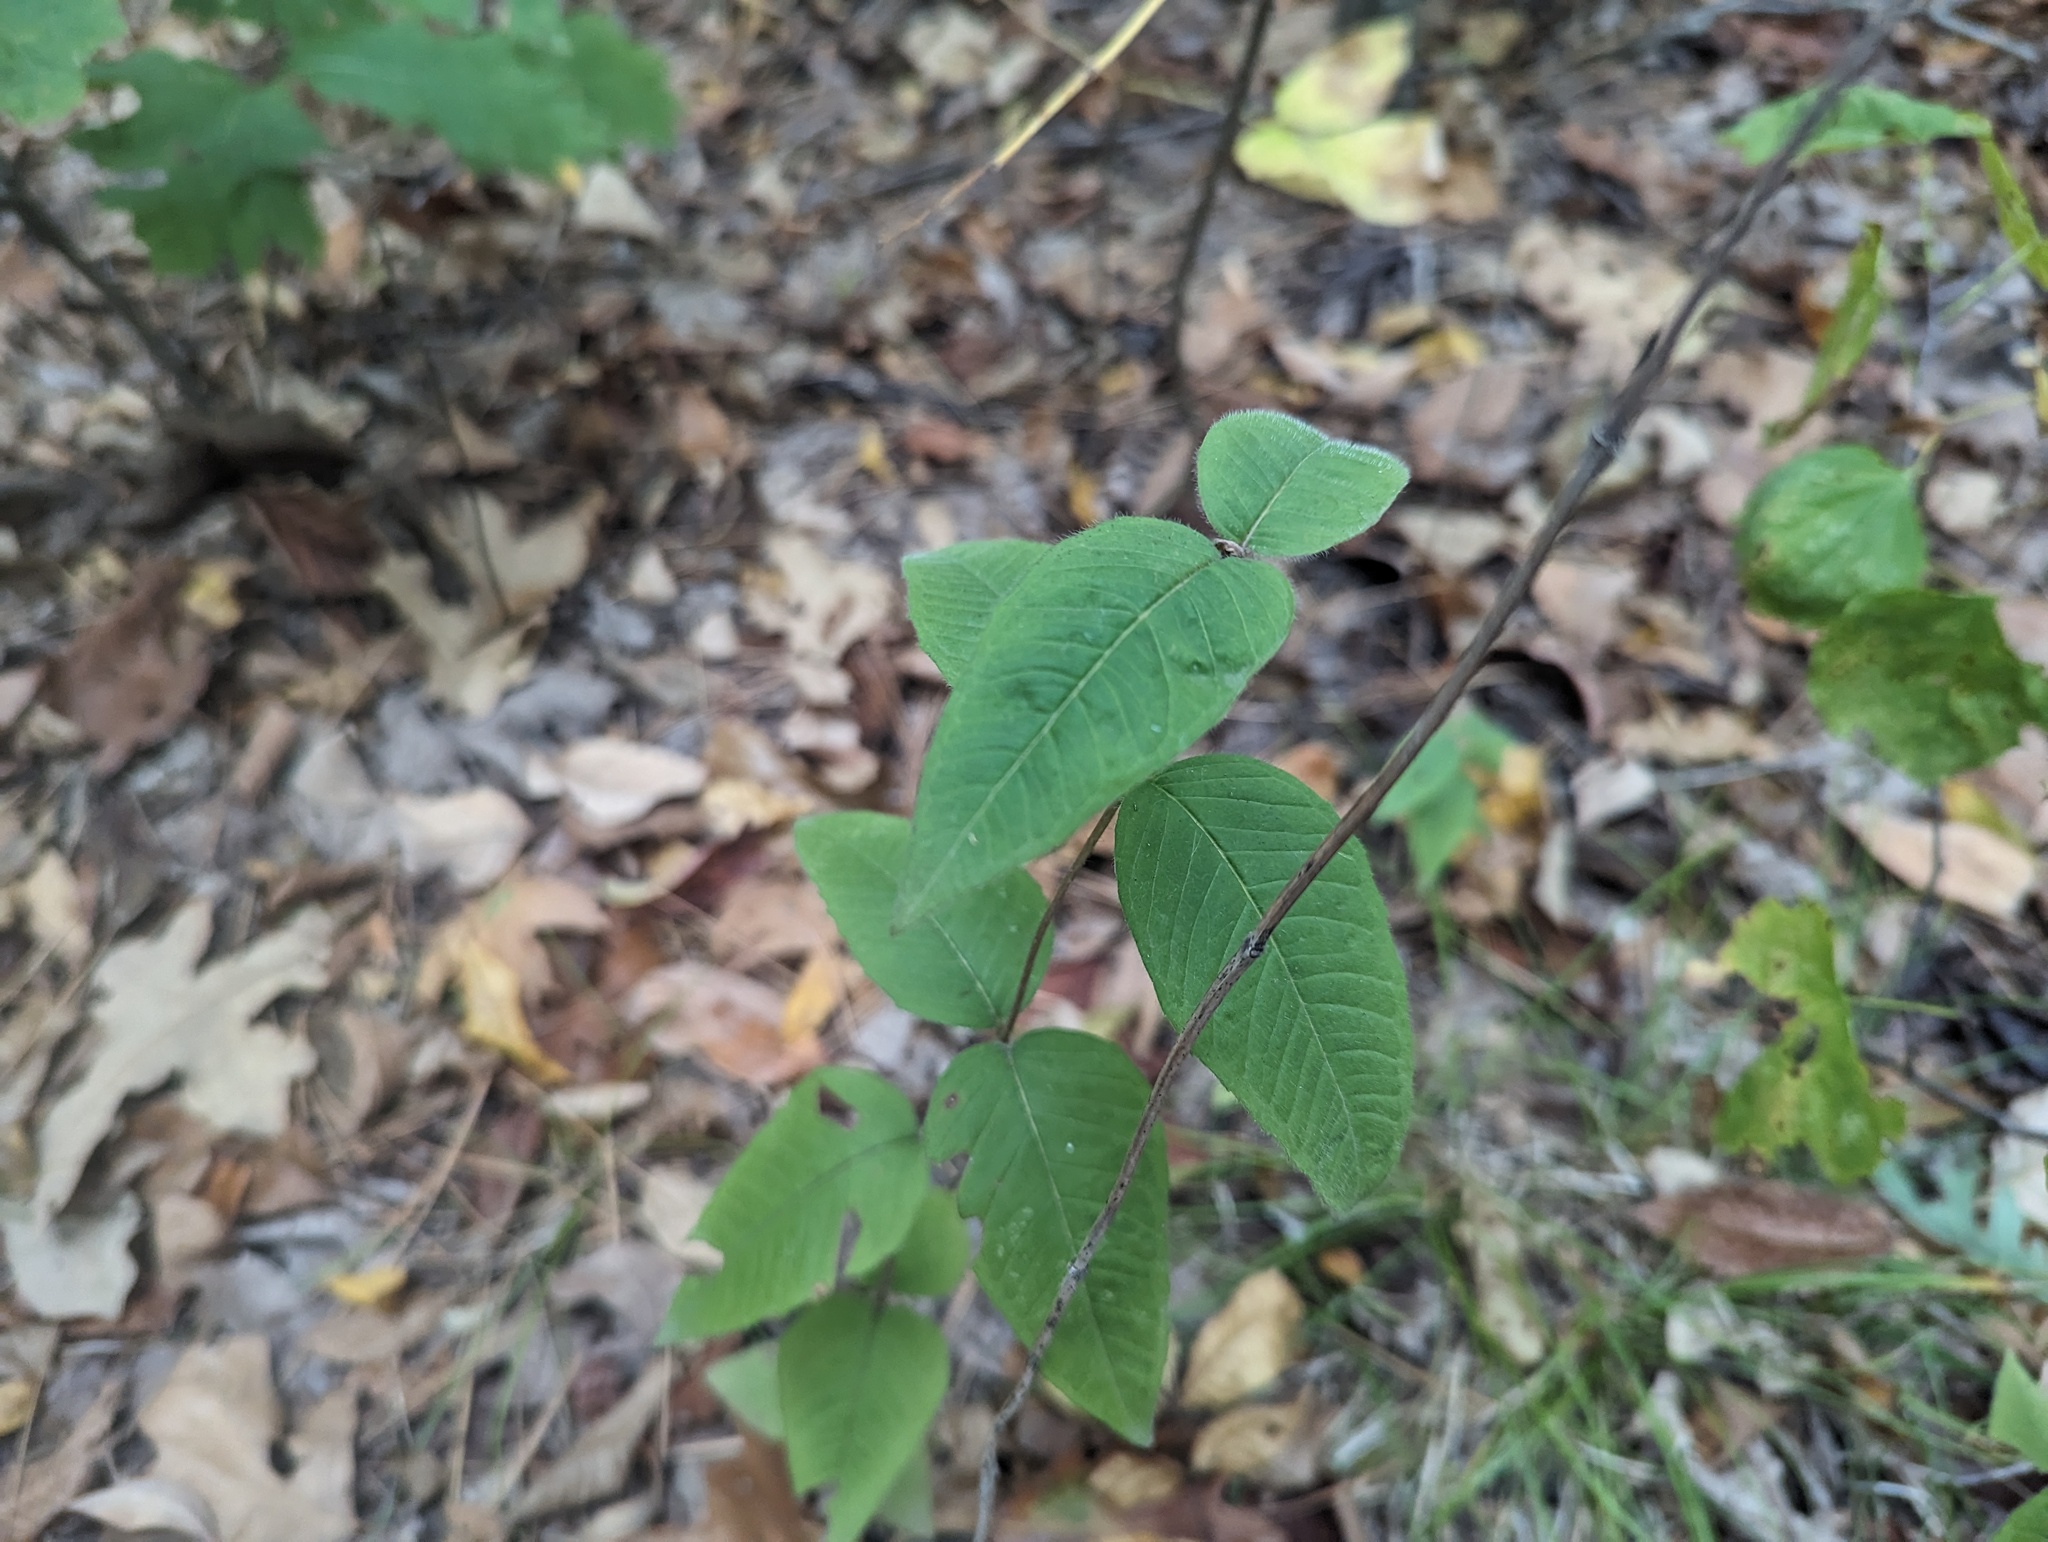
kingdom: Plantae
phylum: Tracheophyta
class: Magnoliopsida
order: Lamiales
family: Lamiaceae
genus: Monarda
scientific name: Monarda bradburiana
